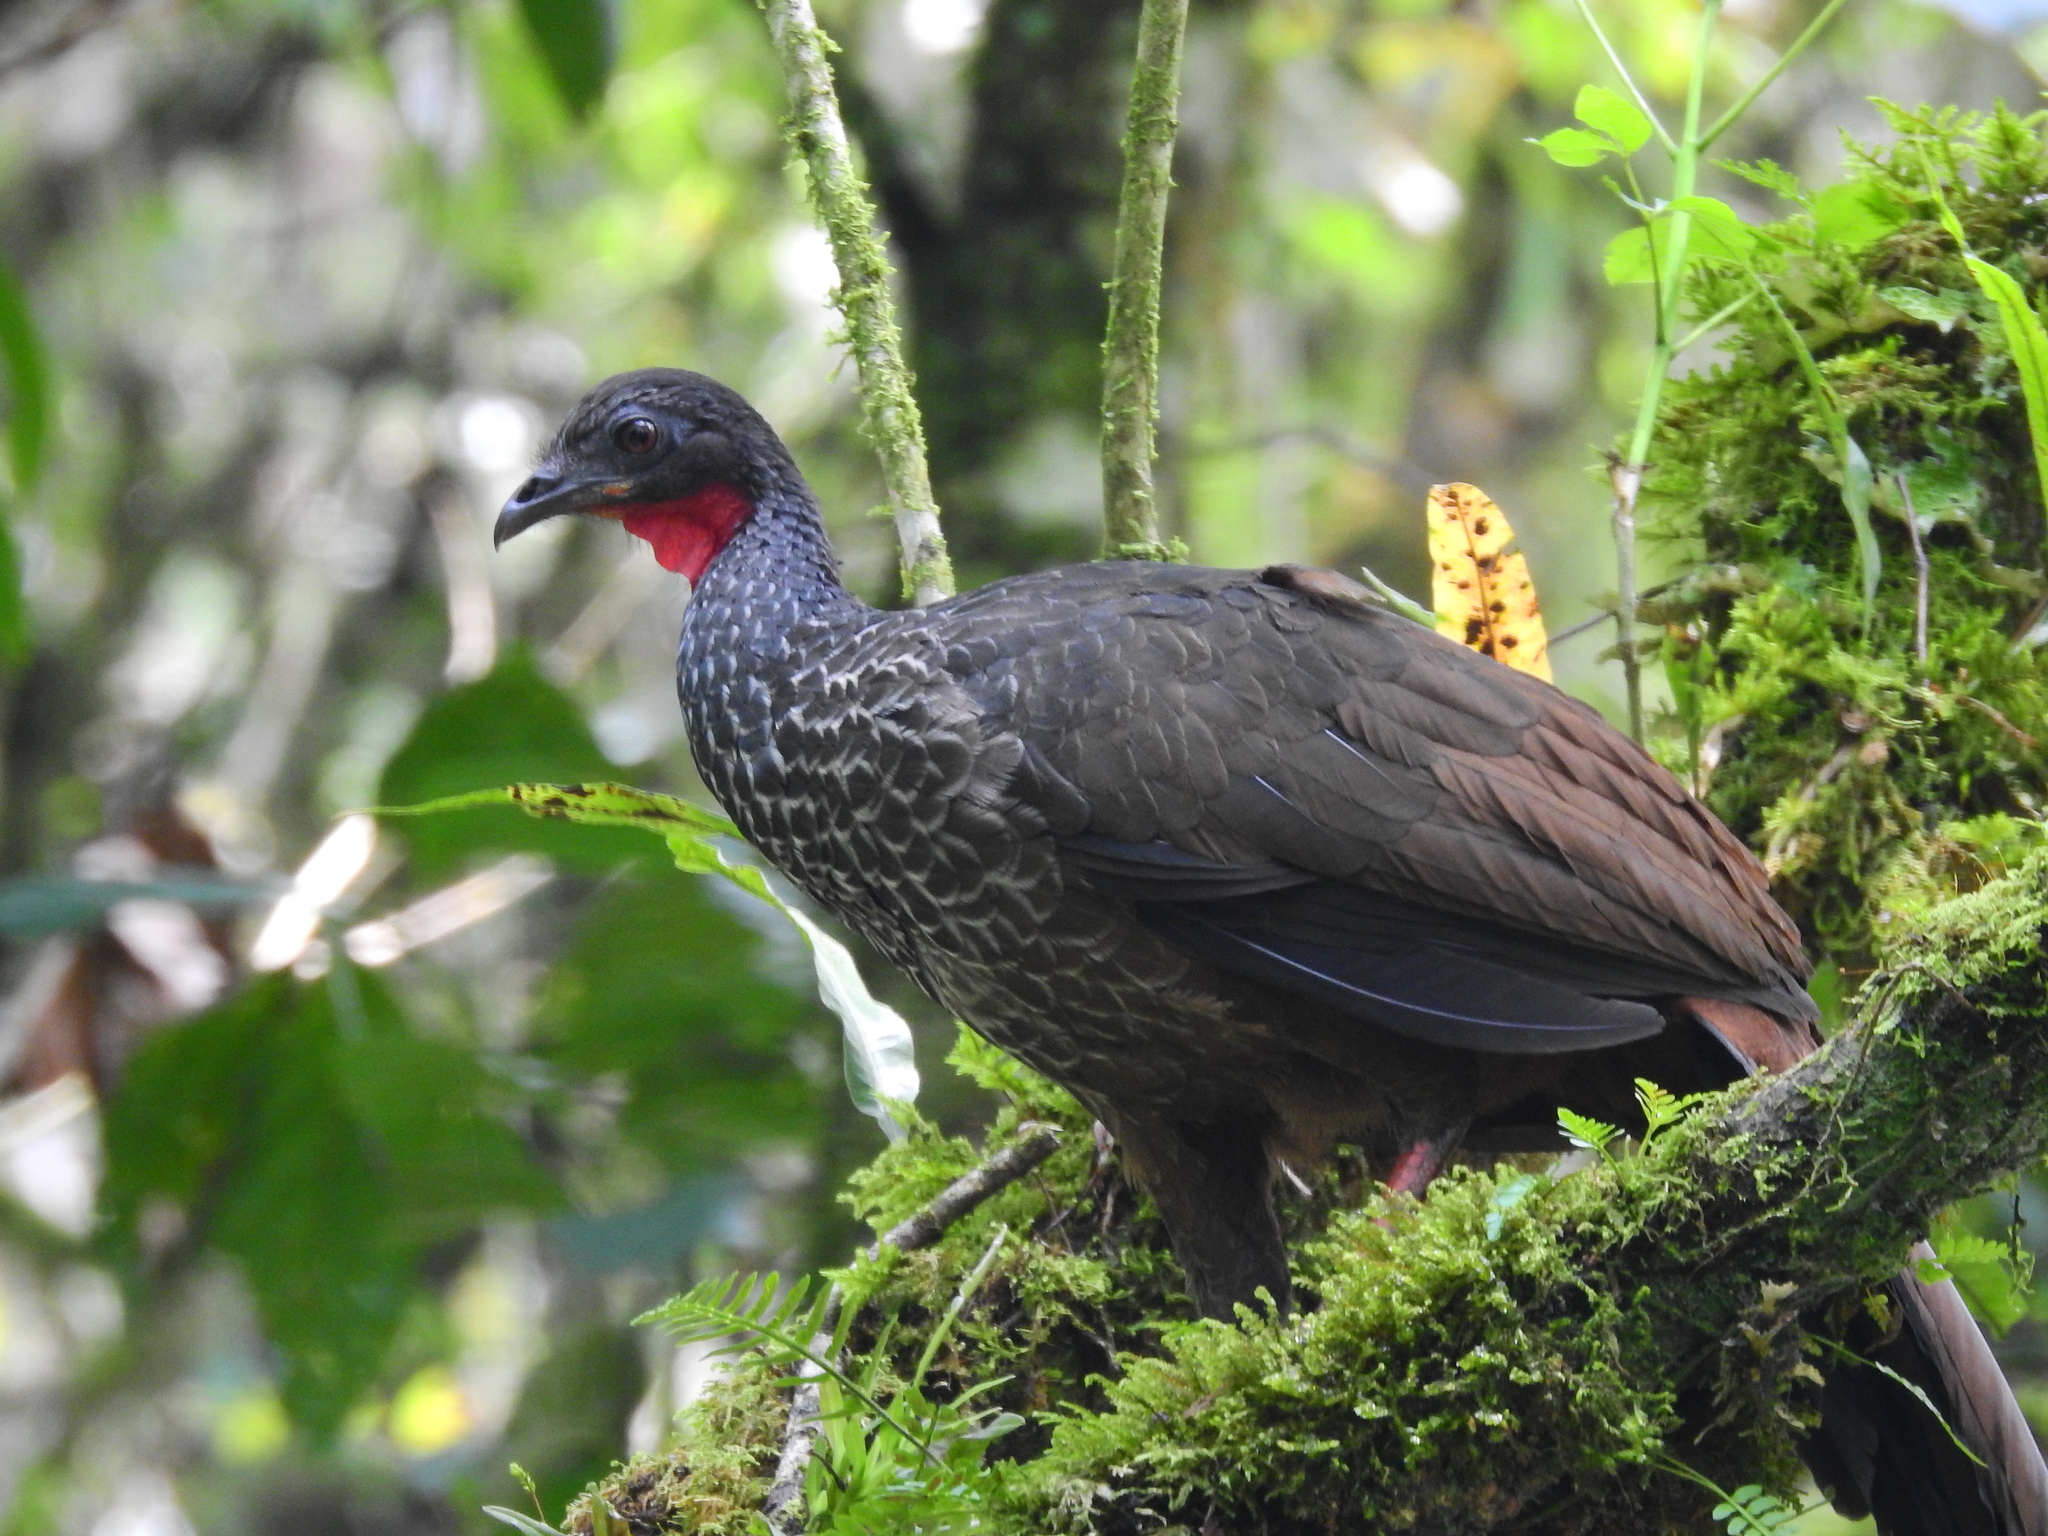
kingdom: Animalia
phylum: Chordata
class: Aves
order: Galliformes
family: Cracidae
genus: Penelope
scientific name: Penelope perspicax
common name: Cauca guan
